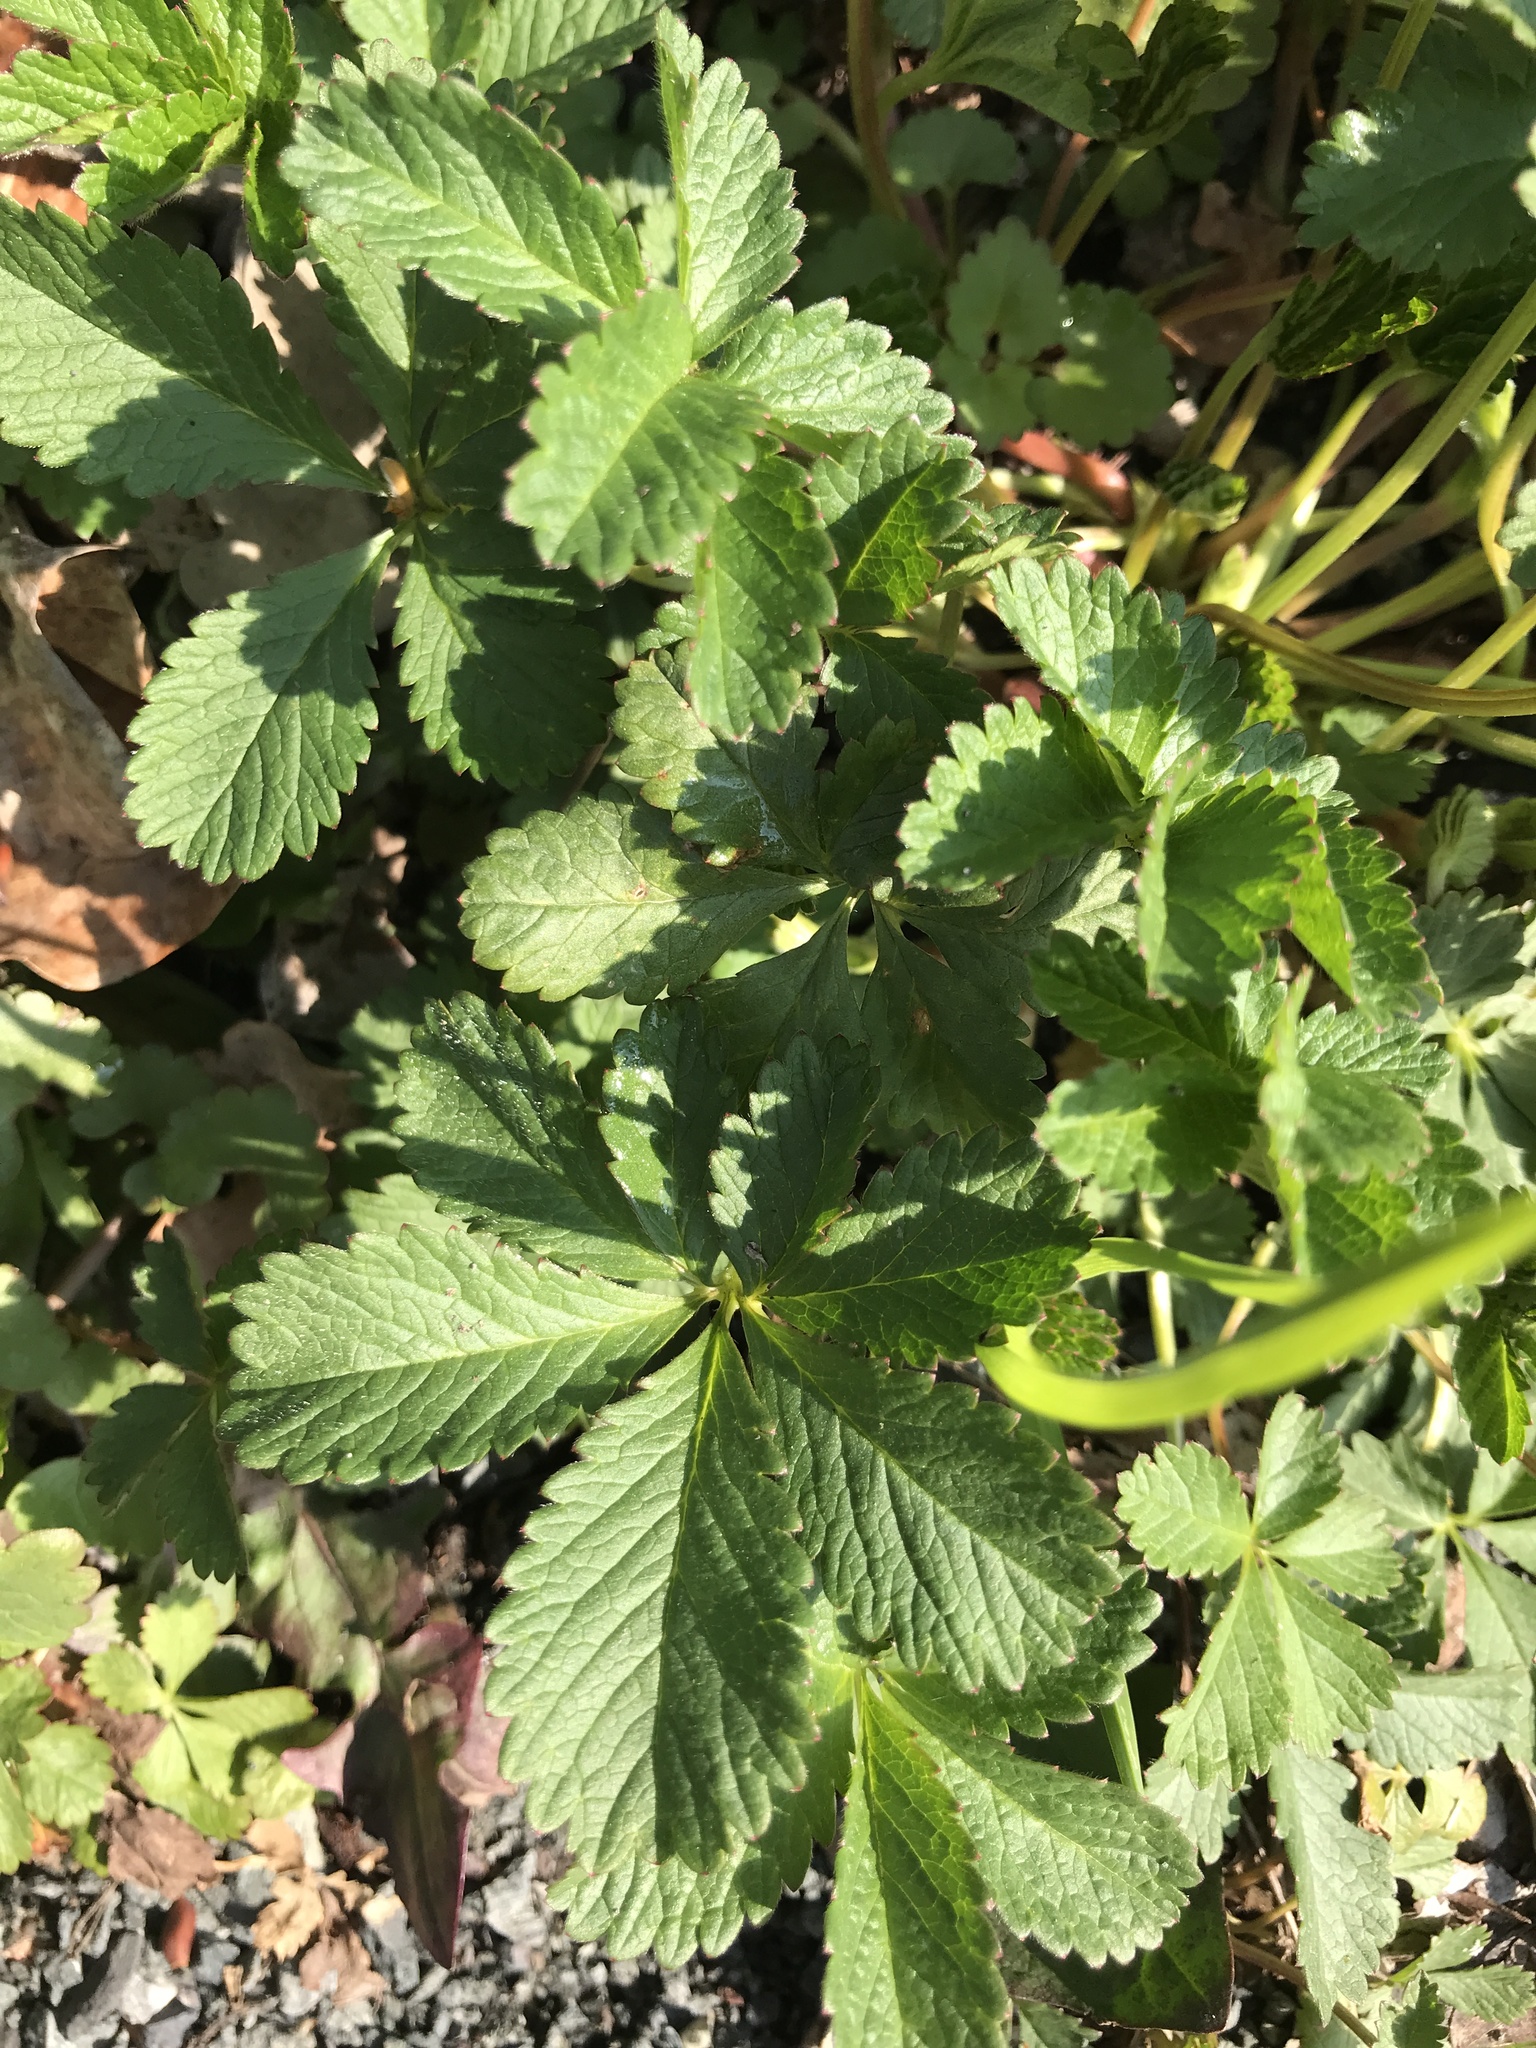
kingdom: Plantae
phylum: Tracheophyta
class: Magnoliopsida
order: Rosales
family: Rosaceae
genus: Potentilla
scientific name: Potentilla reptans
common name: Creeping cinquefoil
